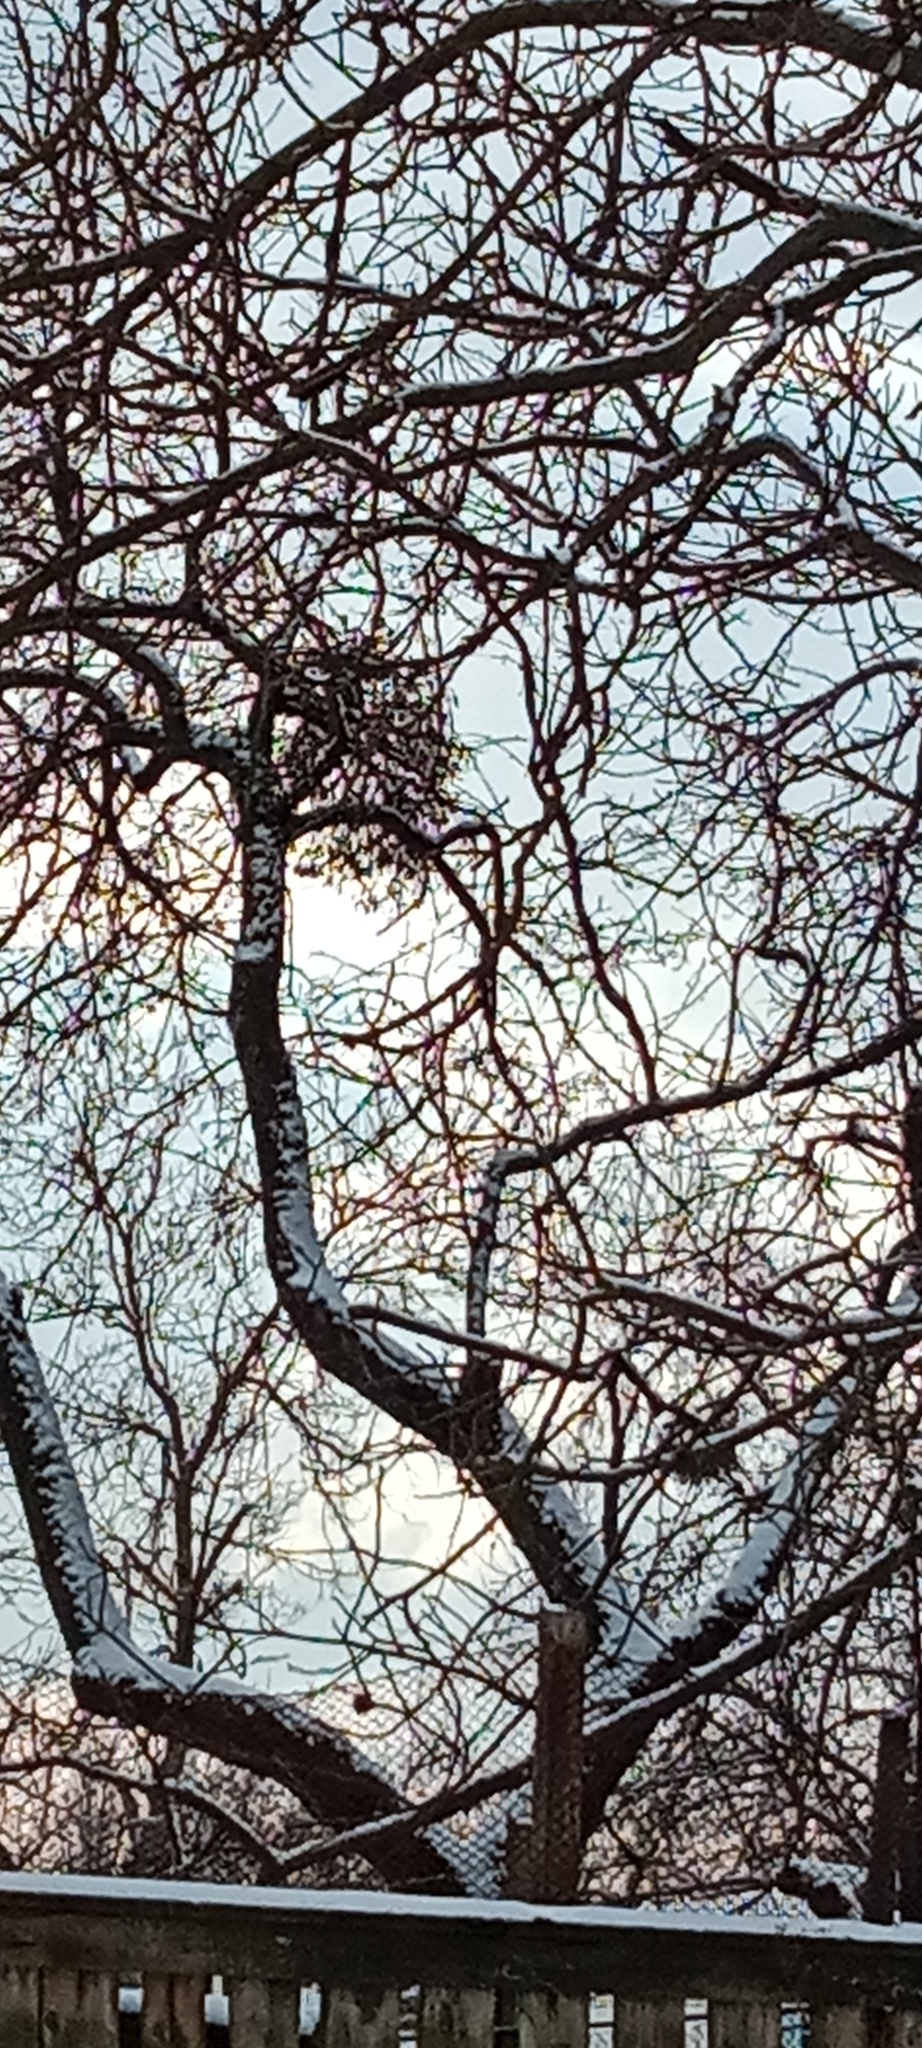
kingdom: Plantae
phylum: Tracheophyta
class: Magnoliopsida
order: Santalales
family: Viscaceae
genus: Viscum
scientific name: Viscum album
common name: Mistletoe
